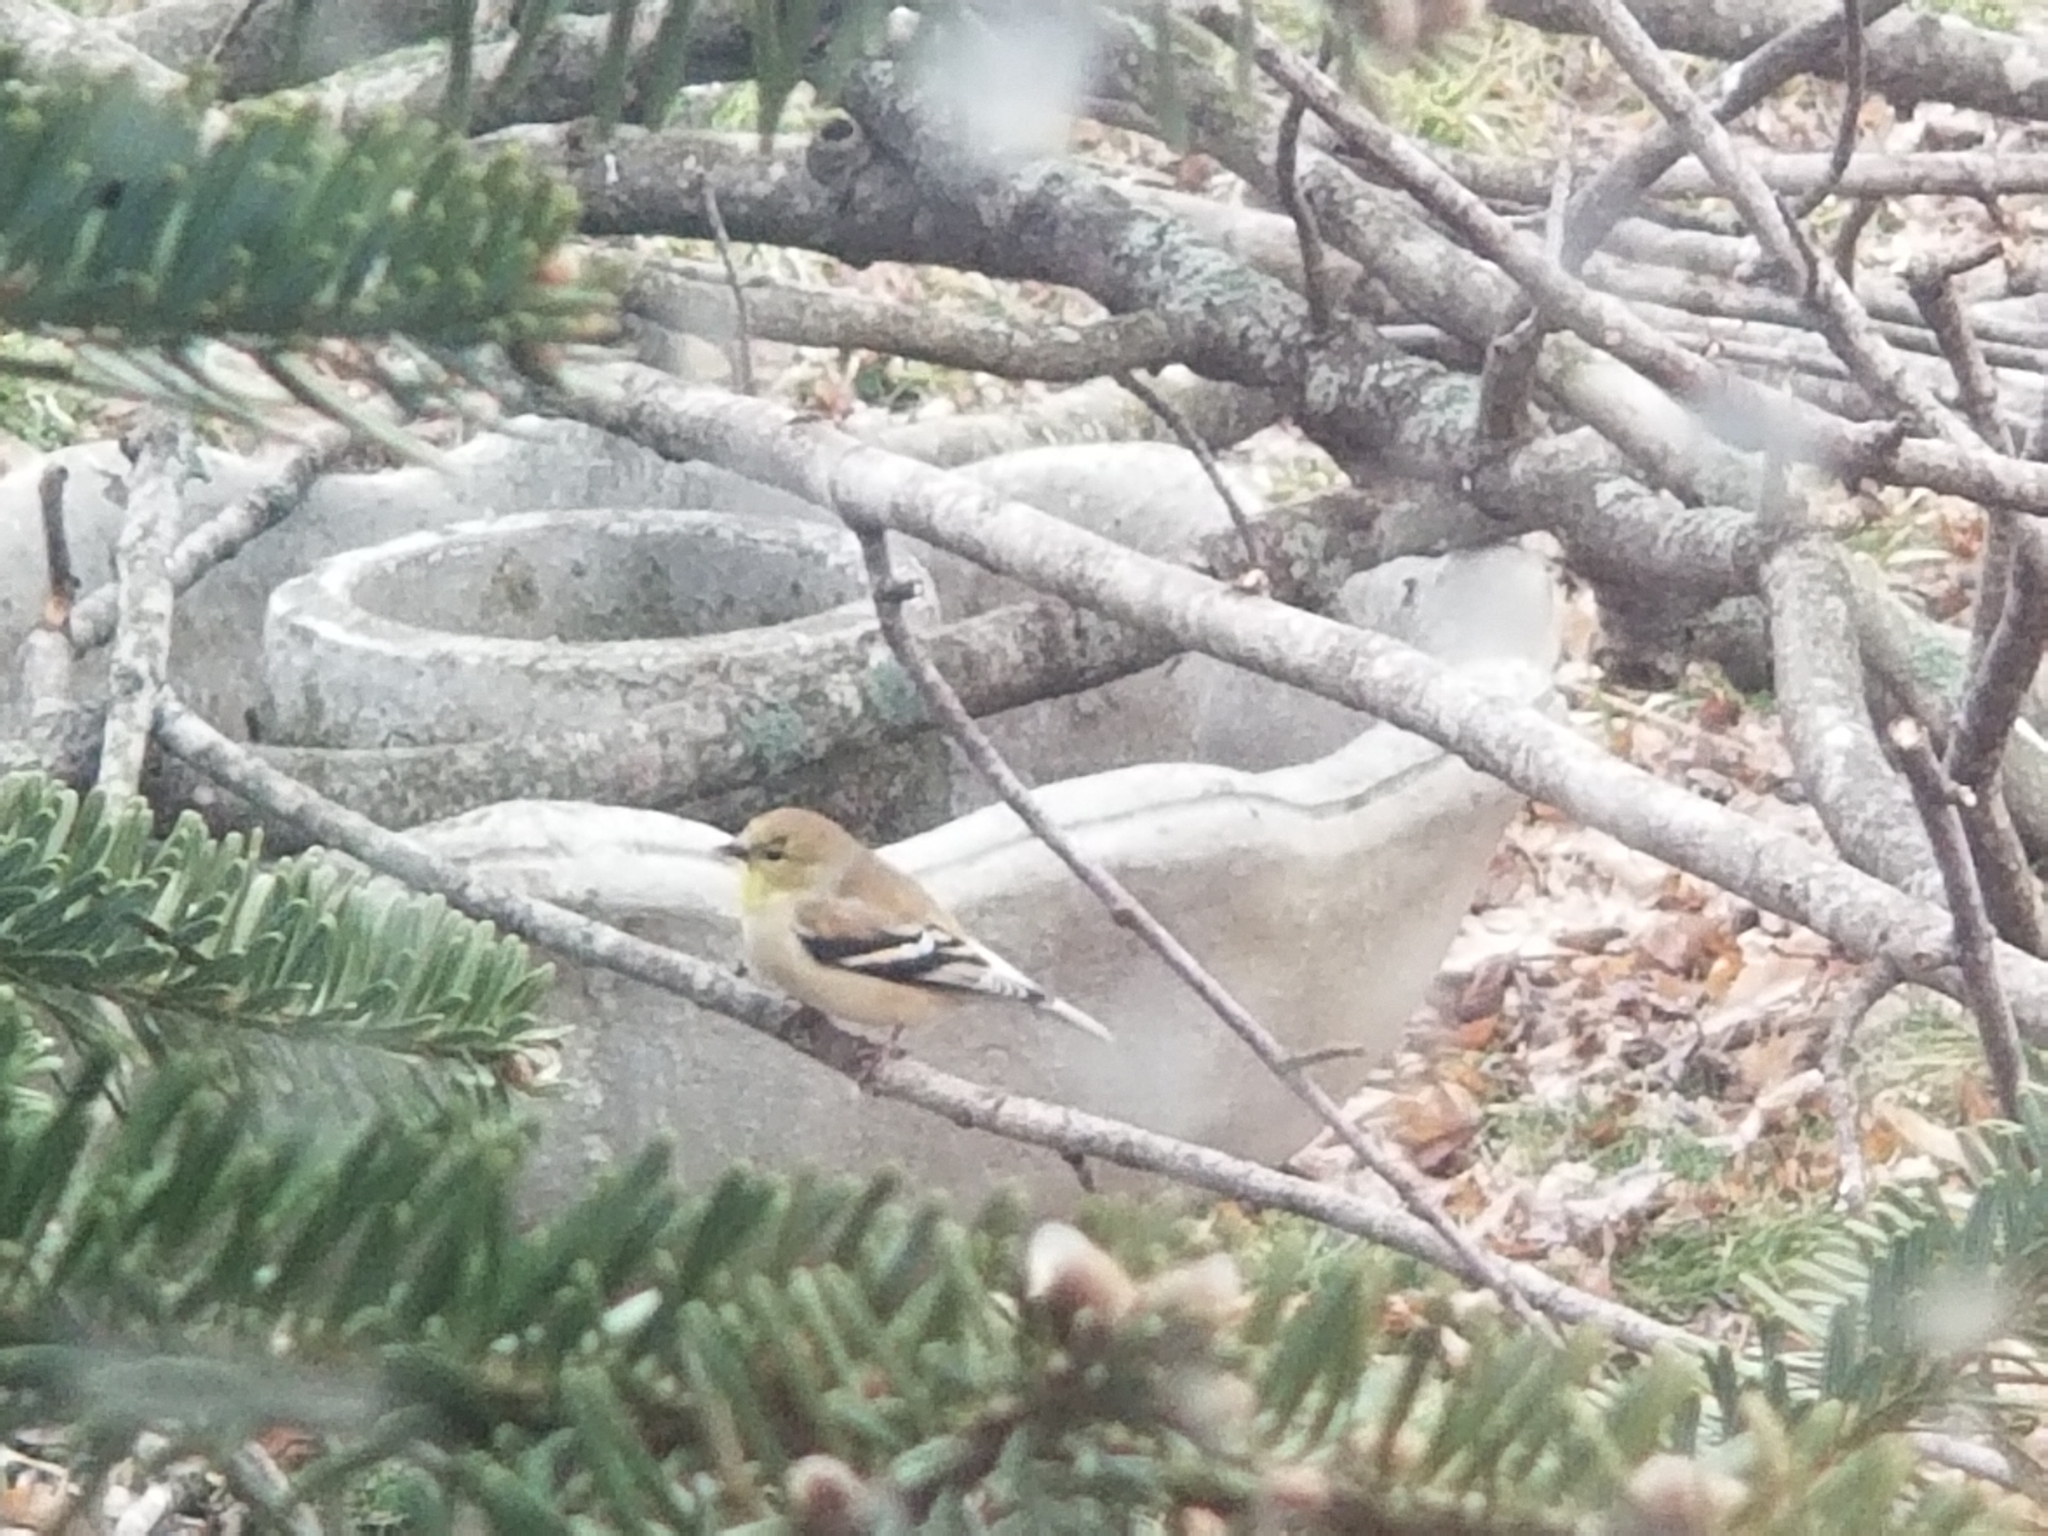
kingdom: Animalia
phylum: Chordata
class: Aves
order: Passeriformes
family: Fringillidae
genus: Spinus
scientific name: Spinus tristis
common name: American goldfinch
